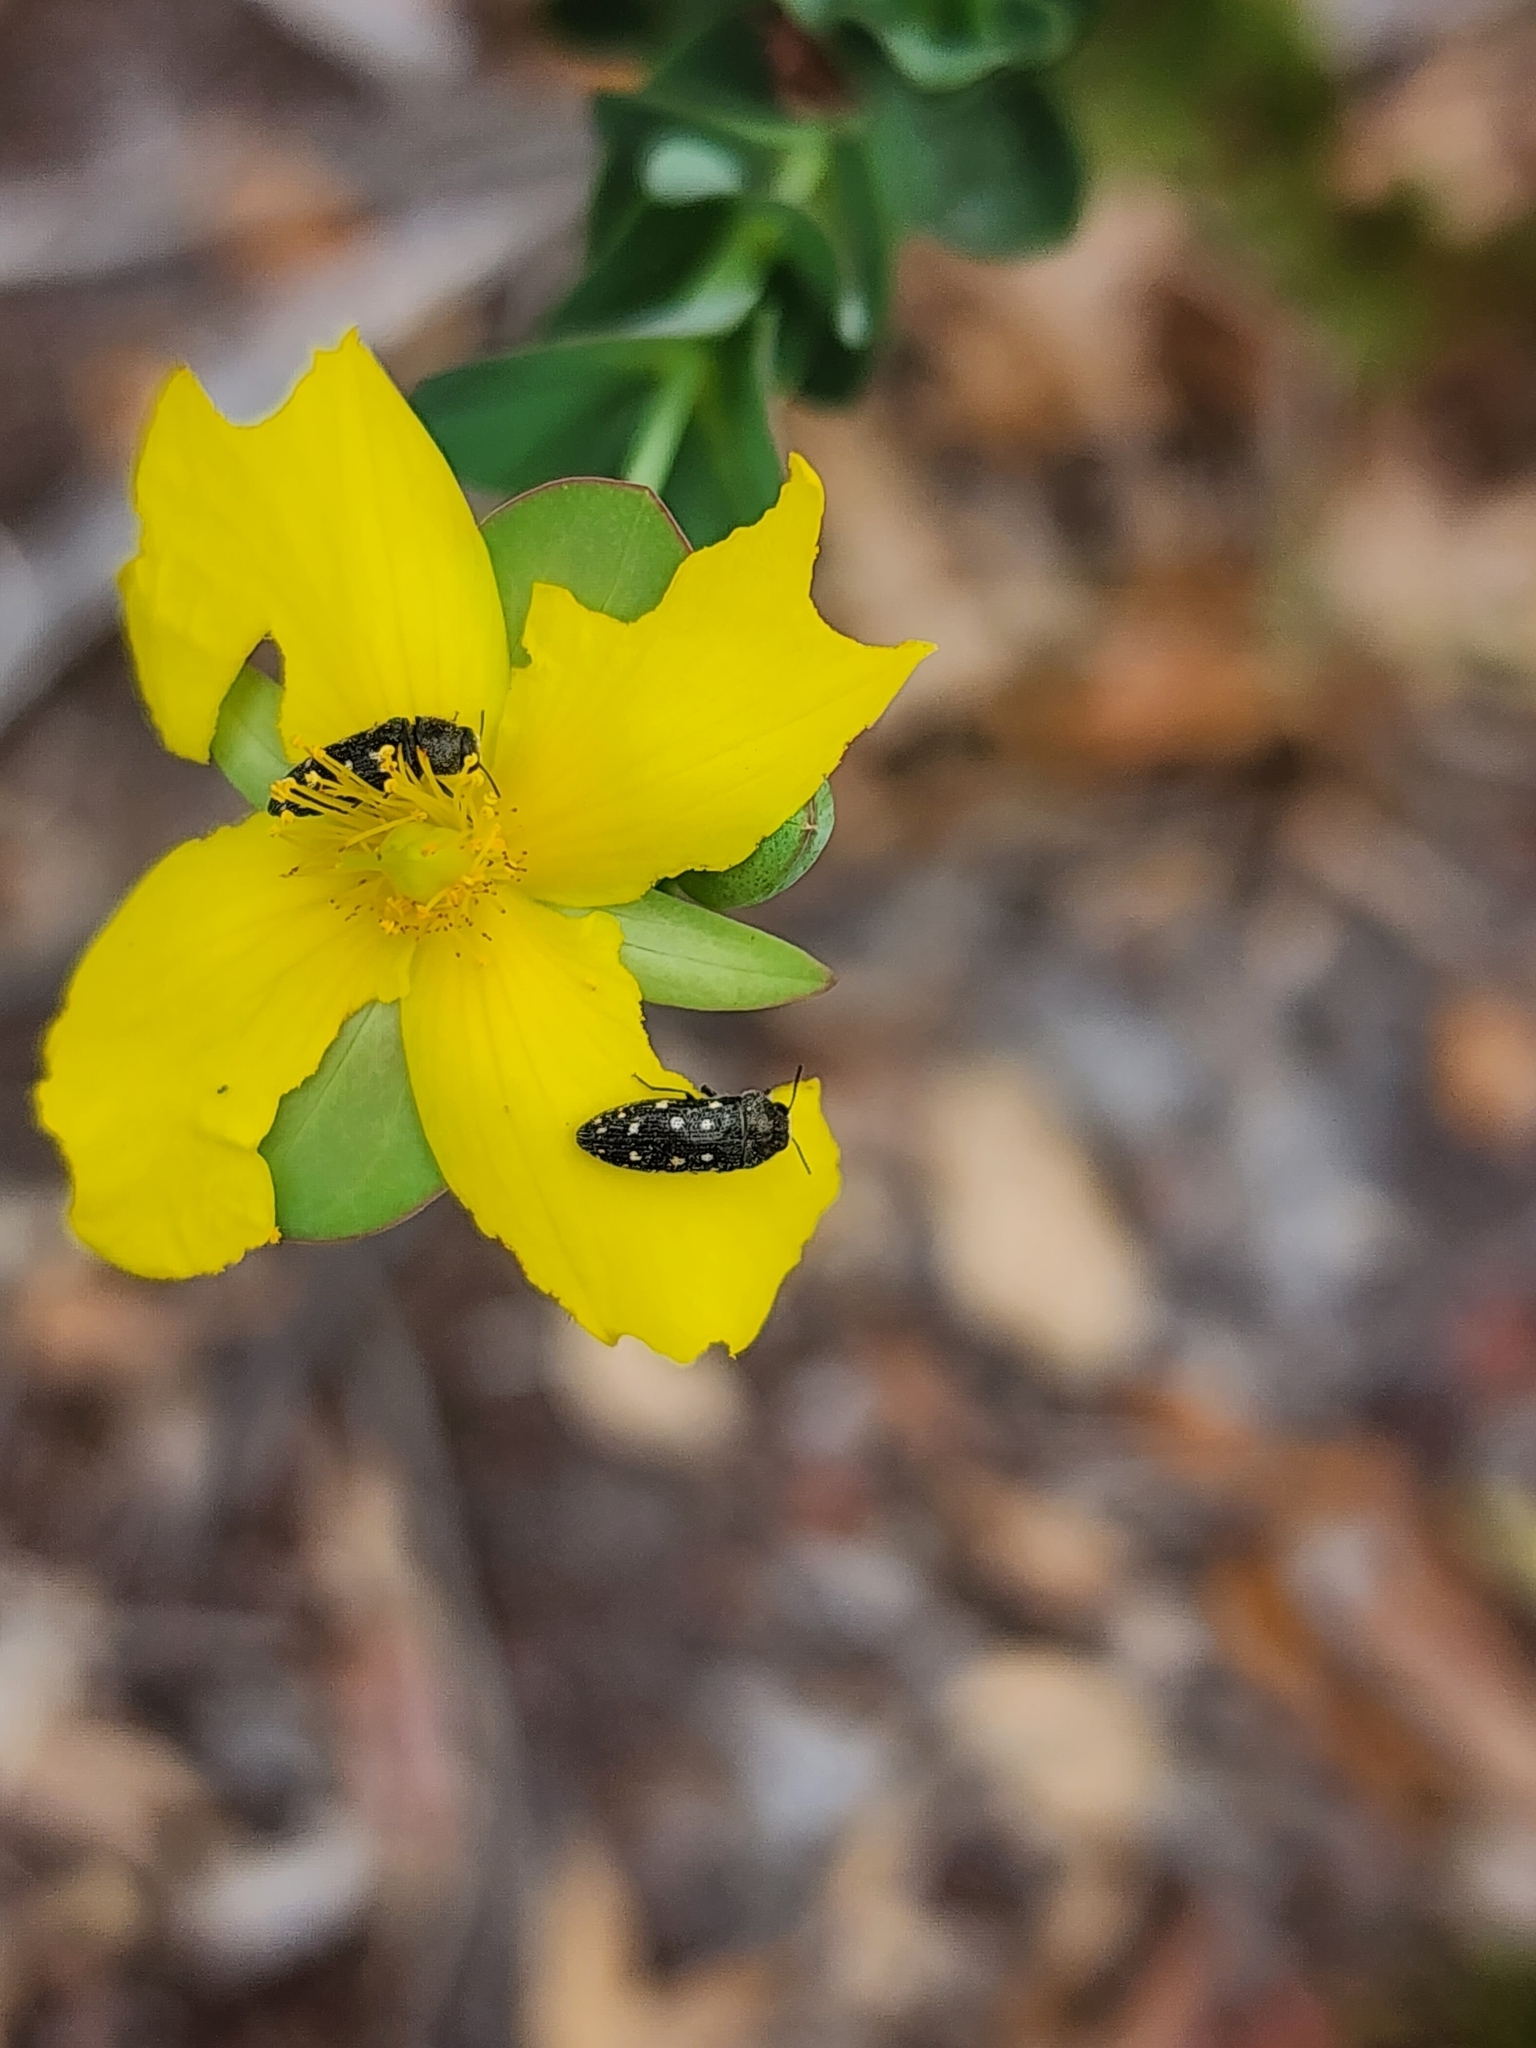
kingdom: Animalia
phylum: Arthropoda
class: Insecta
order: Coleoptera
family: Buprestidae
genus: Acmaeodera
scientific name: Acmaeodera tubulus
